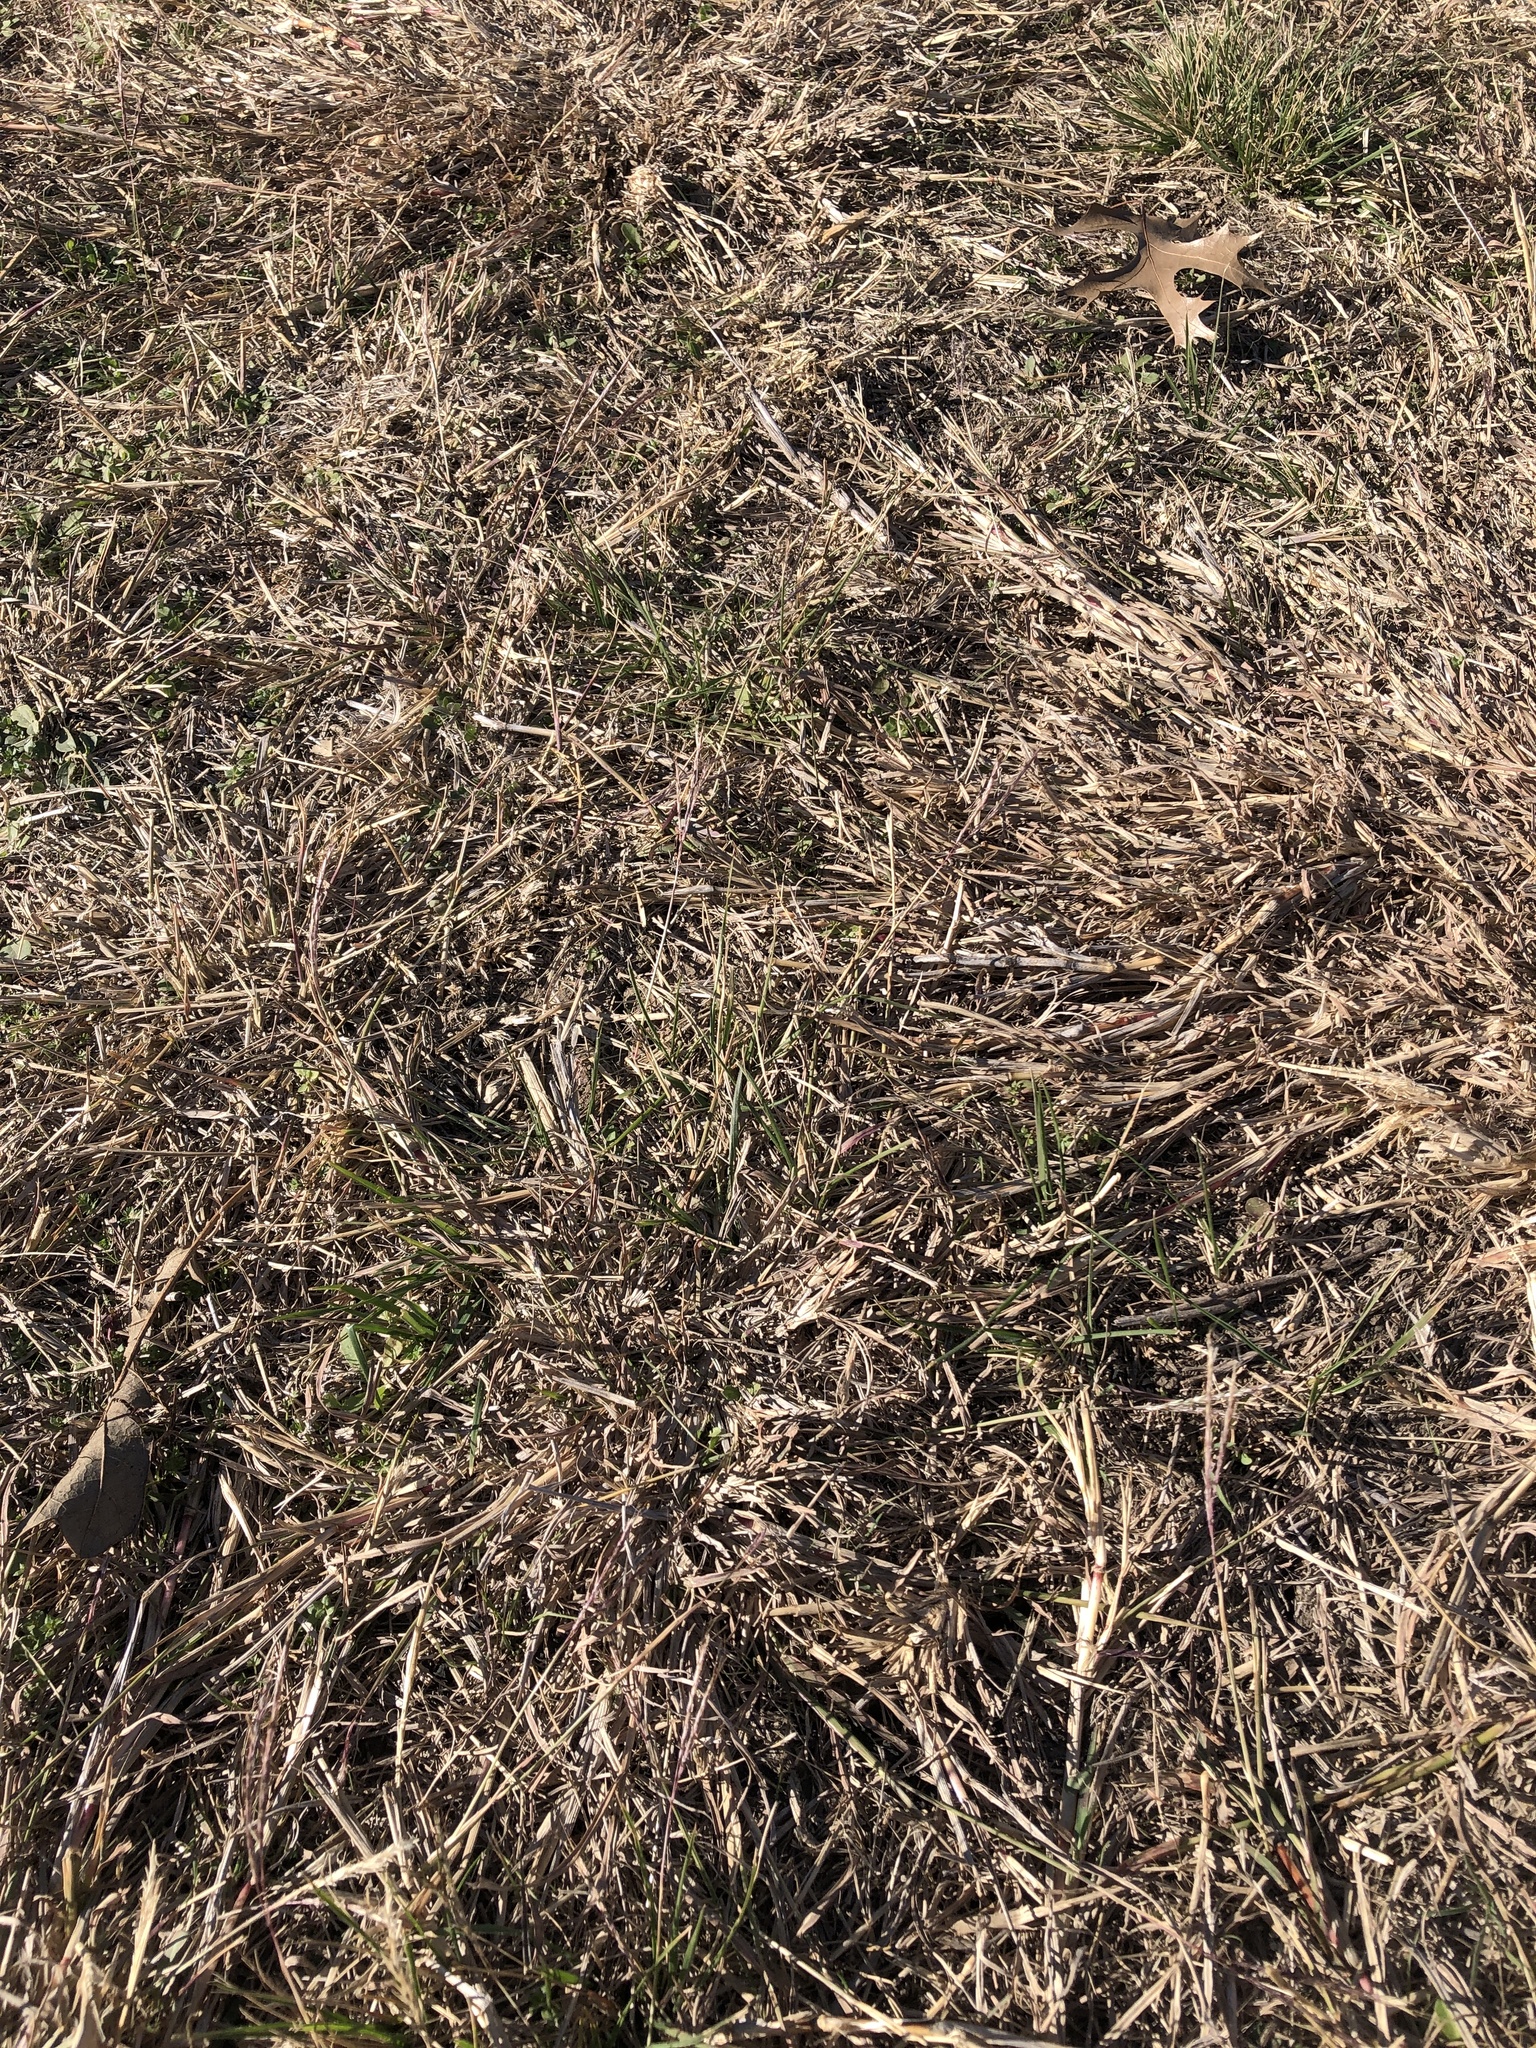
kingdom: Plantae
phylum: Tracheophyta
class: Liliopsida
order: Poales
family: Poaceae
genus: Bothriochloa
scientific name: Bothriochloa ischaemum
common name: Yellow bluestem
